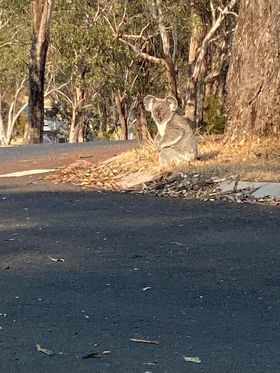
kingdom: Animalia
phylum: Chordata
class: Mammalia
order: Diprotodontia
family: Phascolarctidae
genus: Phascolarctos
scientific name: Phascolarctos cinereus
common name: Koala
